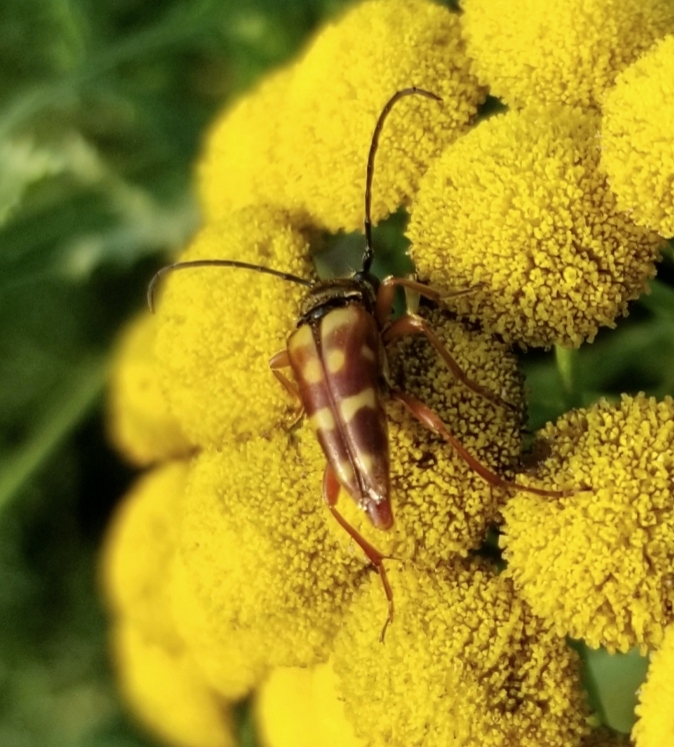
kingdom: Animalia
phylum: Arthropoda
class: Insecta
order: Coleoptera
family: Cerambycidae
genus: Typocerus
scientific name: Typocerus velutinus
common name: Banded longhorn beetle
